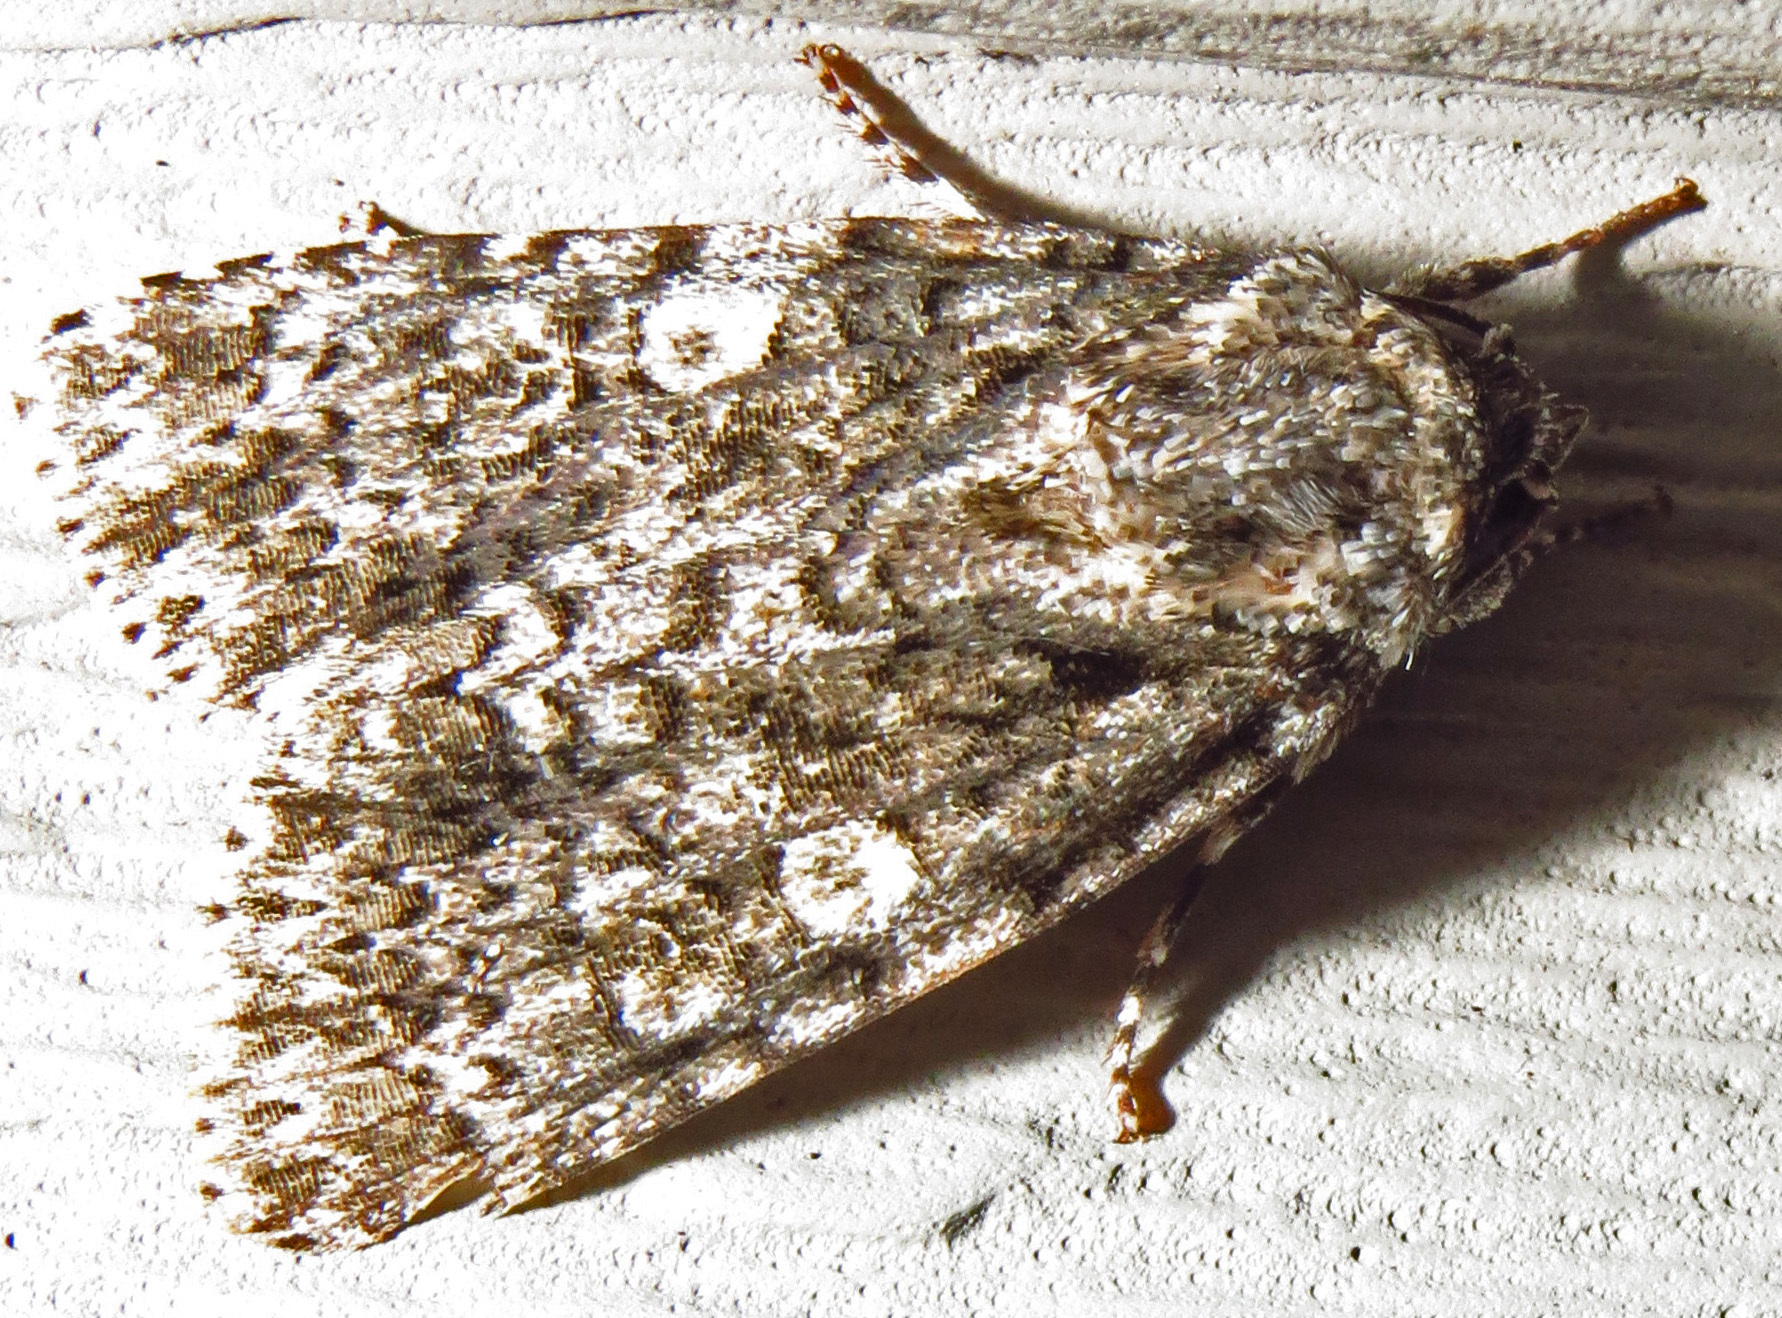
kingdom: Animalia
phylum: Arthropoda
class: Insecta
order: Lepidoptera
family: Noctuidae
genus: Acronicta
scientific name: Acronicta afflicta
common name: Afflicted dagger moth
